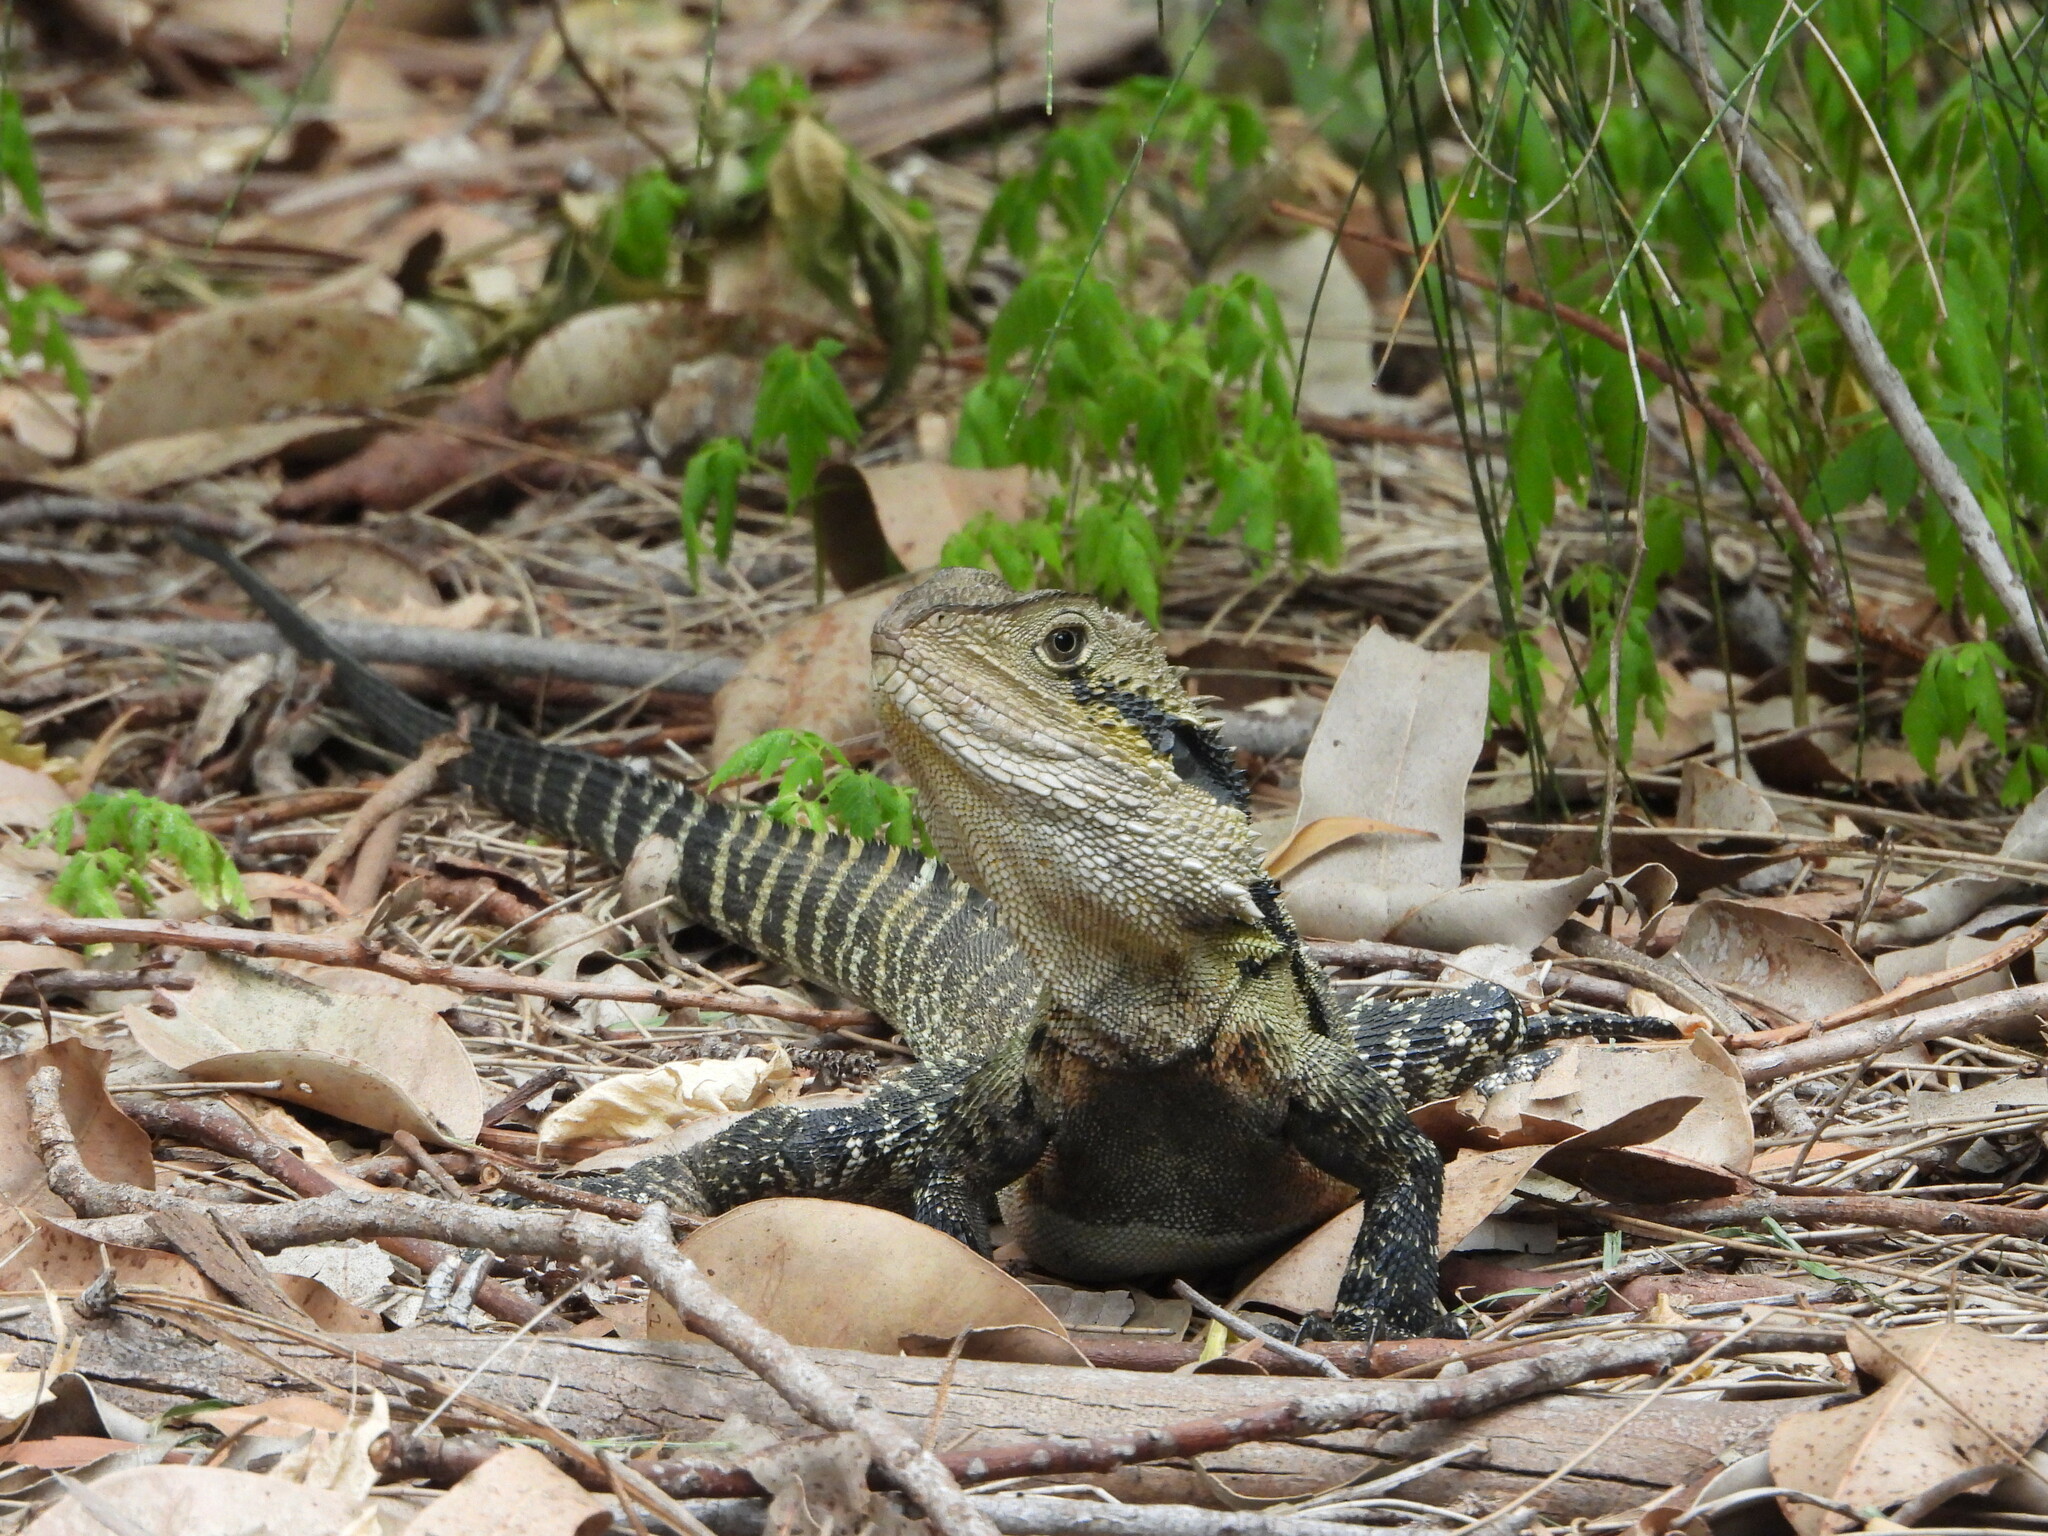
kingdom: Animalia
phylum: Chordata
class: Squamata
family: Agamidae
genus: Intellagama
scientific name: Intellagama lesueurii
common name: Eastern water dragon
